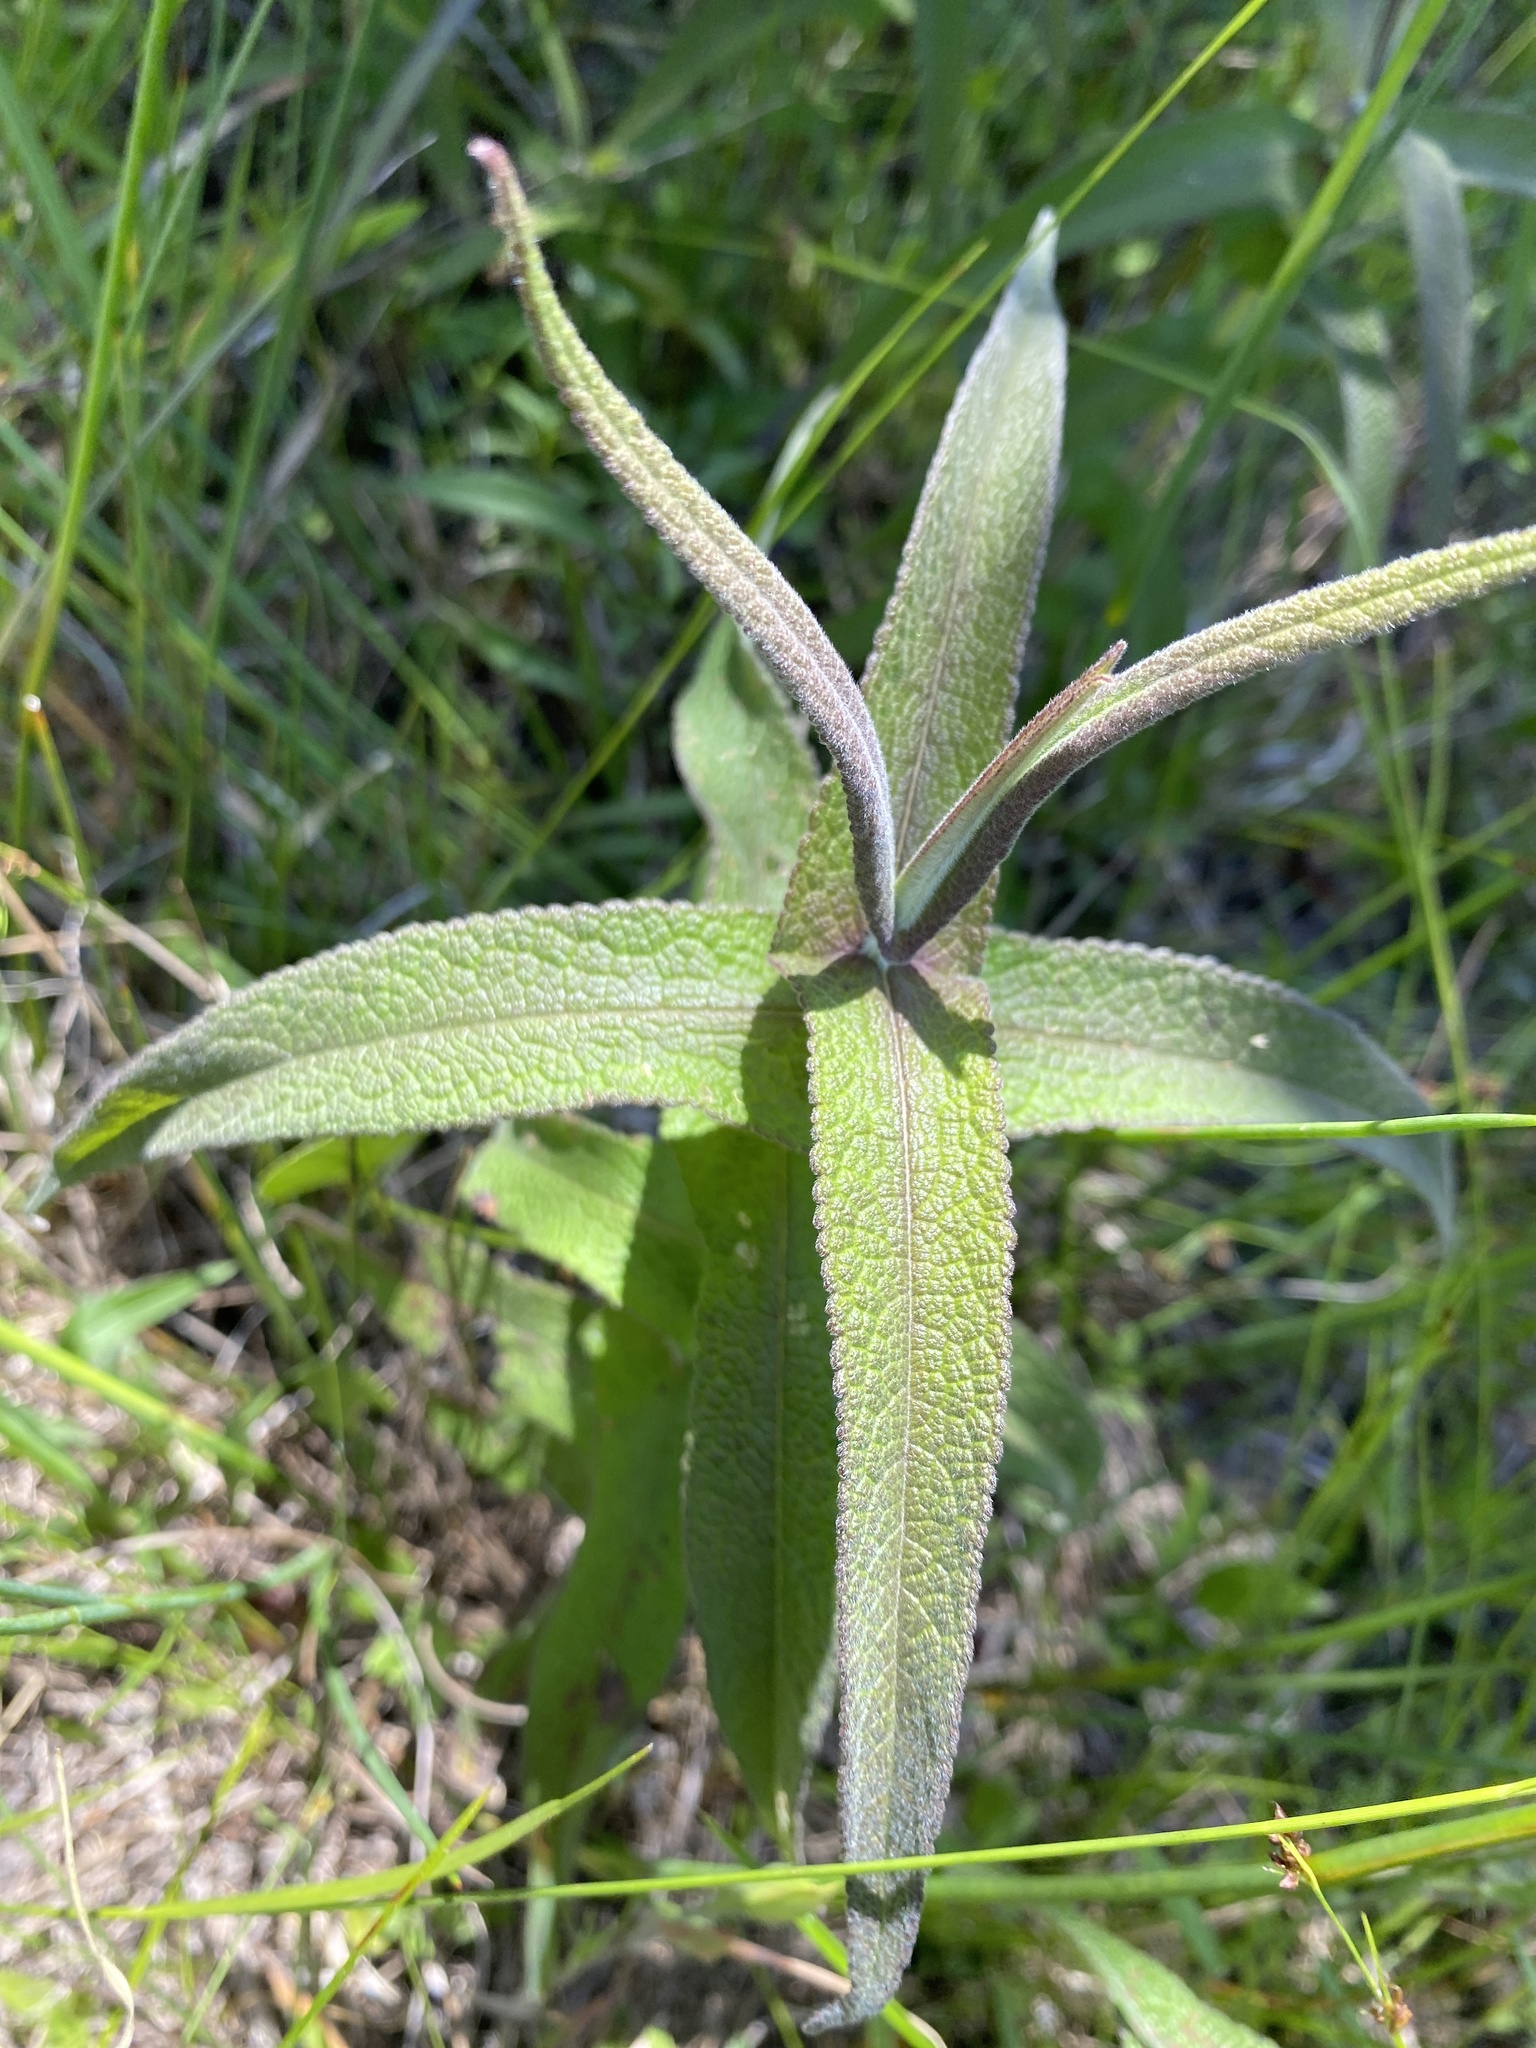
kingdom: Plantae
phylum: Tracheophyta
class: Magnoliopsida
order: Asterales
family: Asteraceae
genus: Eupatorium
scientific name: Eupatorium perfoliatum
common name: Boneset
